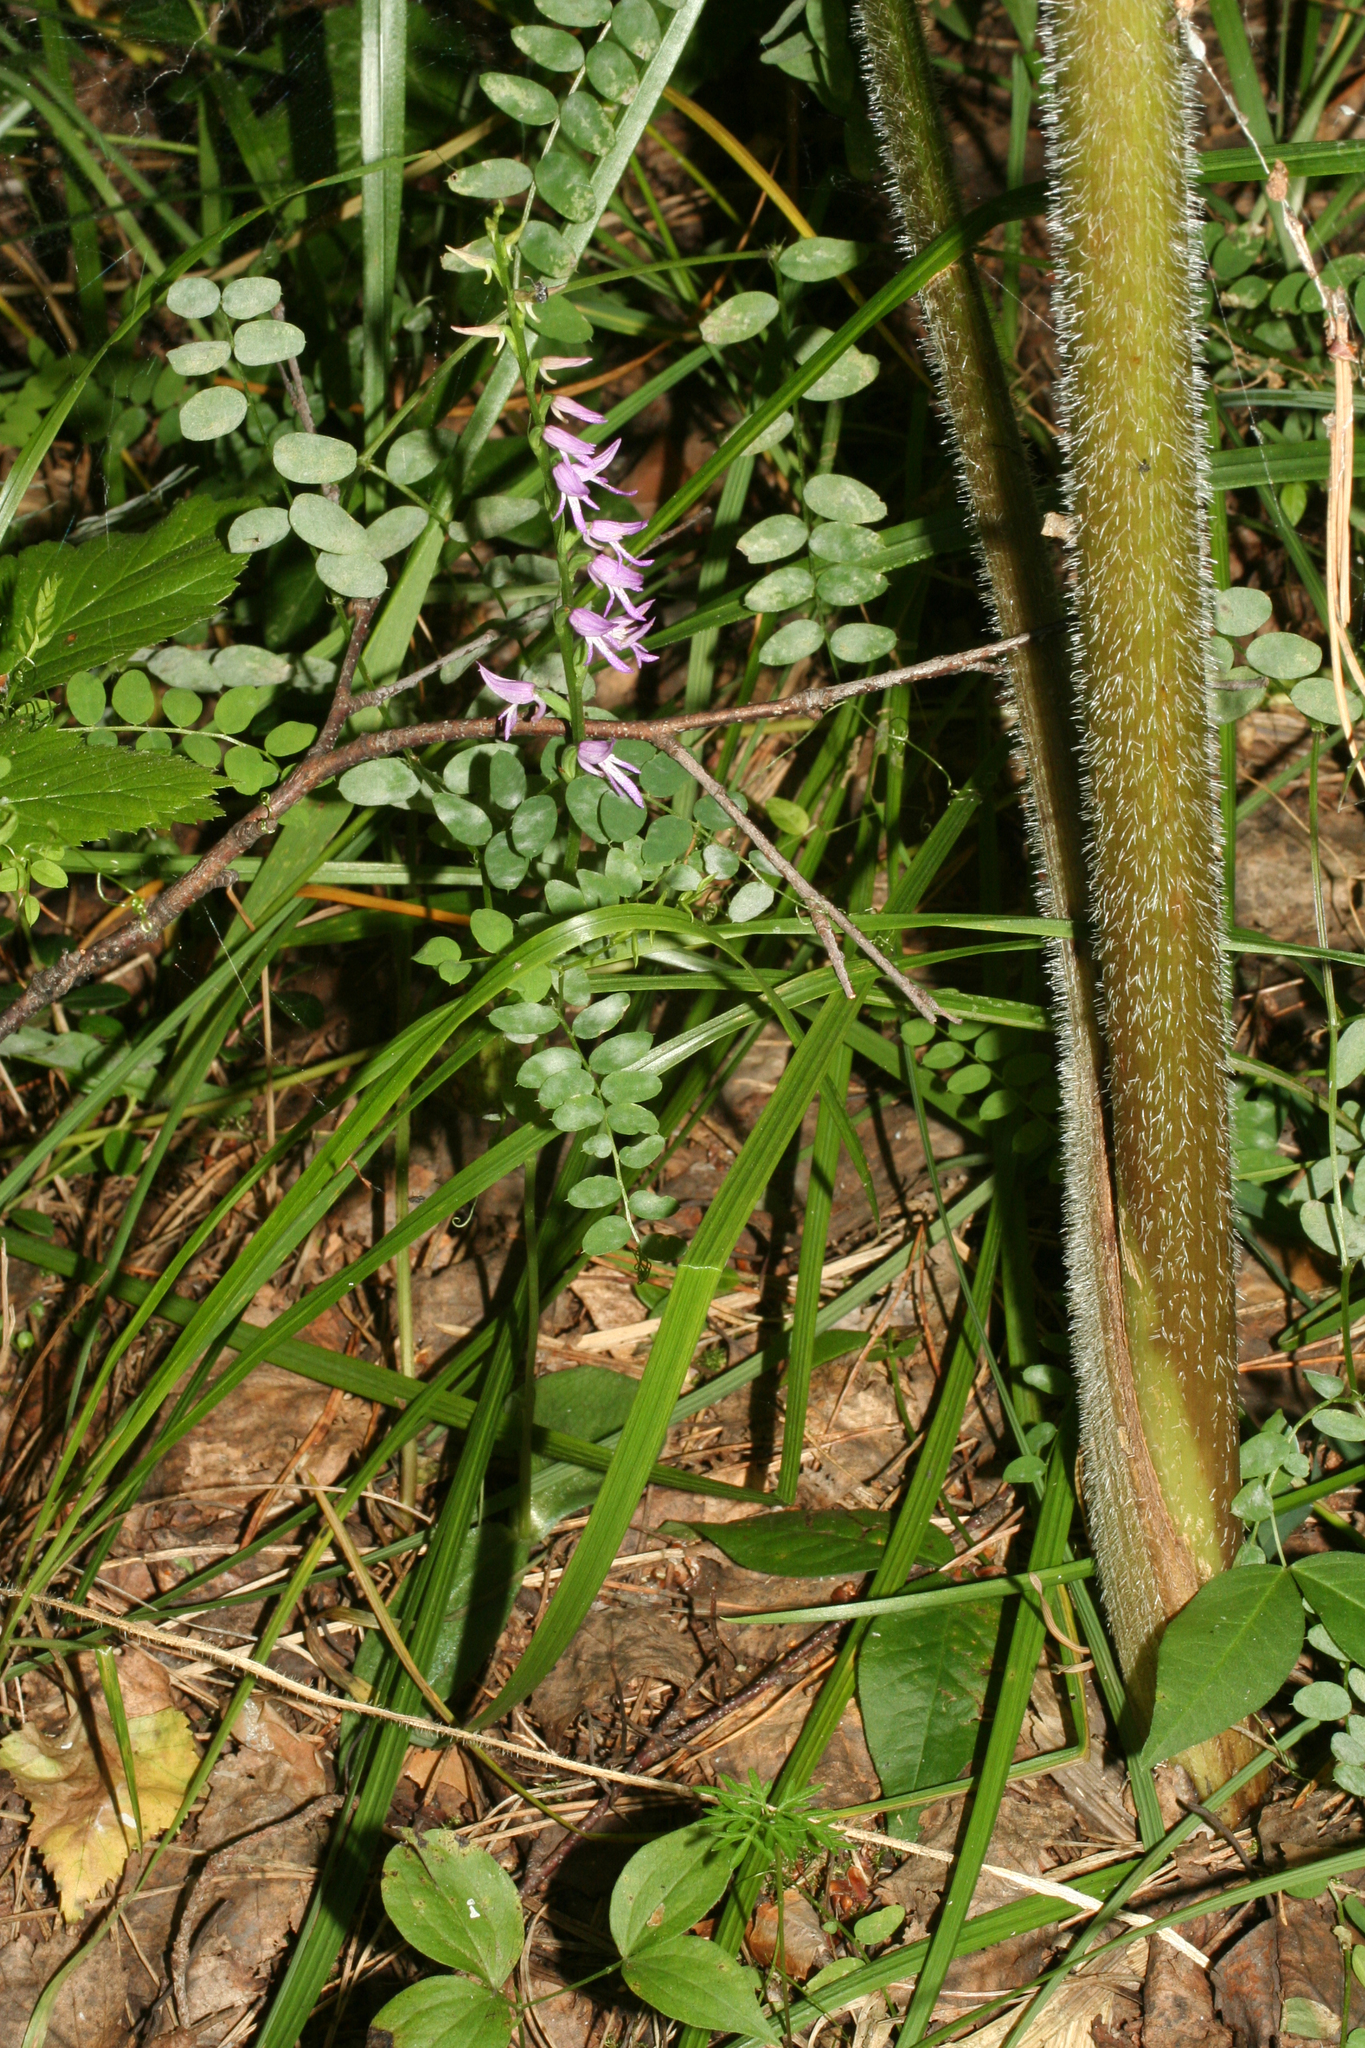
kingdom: Plantae
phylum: Tracheophyta
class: Liliopsida
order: Asparagales
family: Orchidaceae
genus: Hemipilia
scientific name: Hemipilia cucullata
